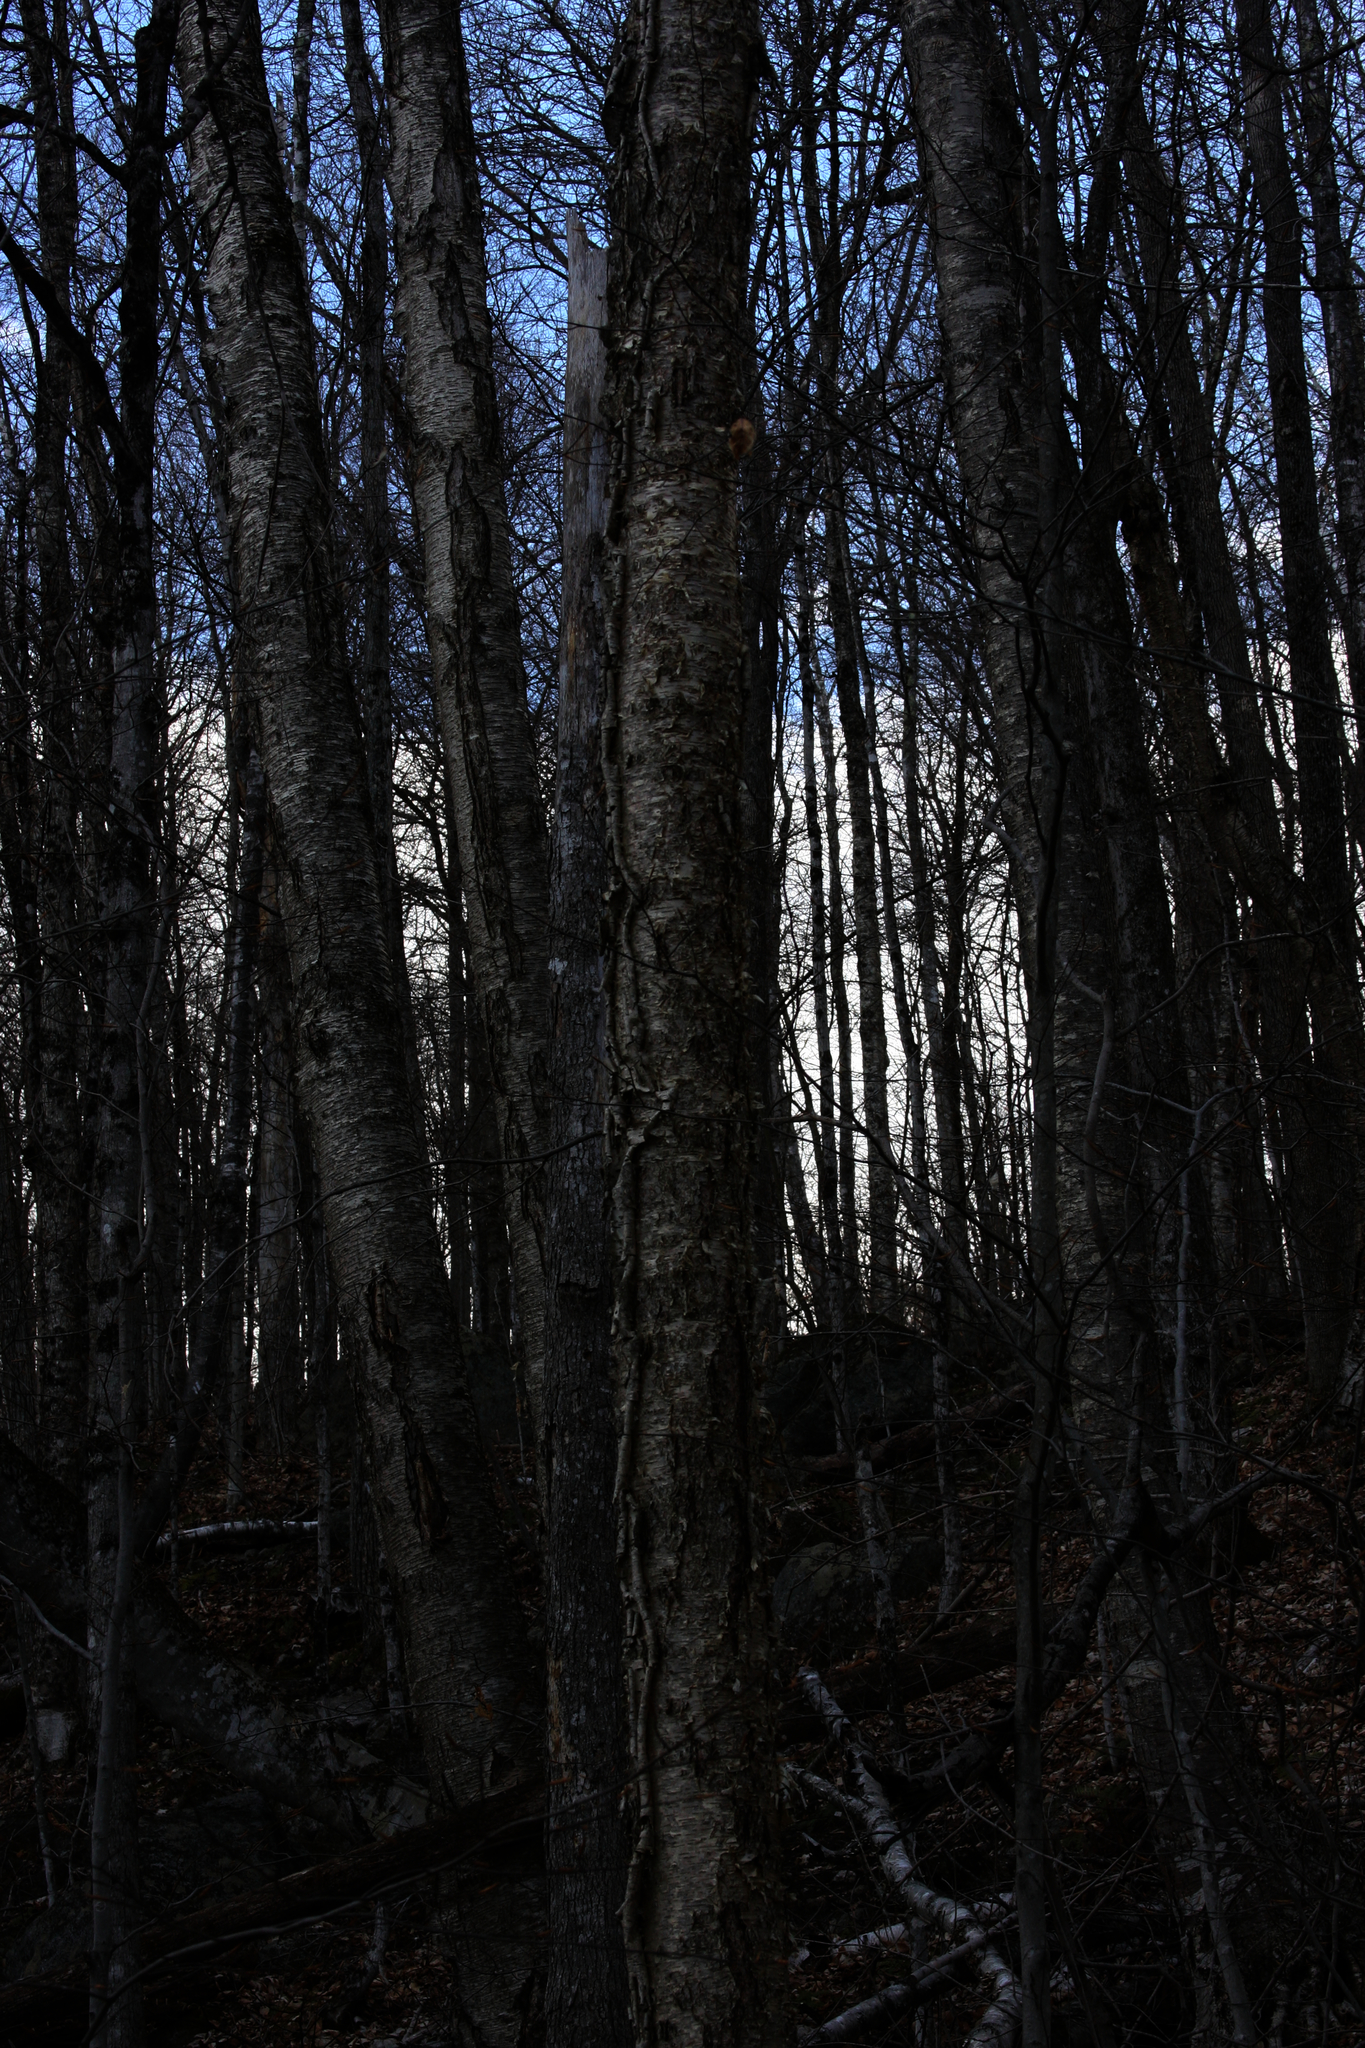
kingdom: Plantae
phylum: Tracheophyta
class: Magnoliopsida
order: Fagales
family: Betulaceae
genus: Betula
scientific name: Betula alleghaniensis
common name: Yellow birch
